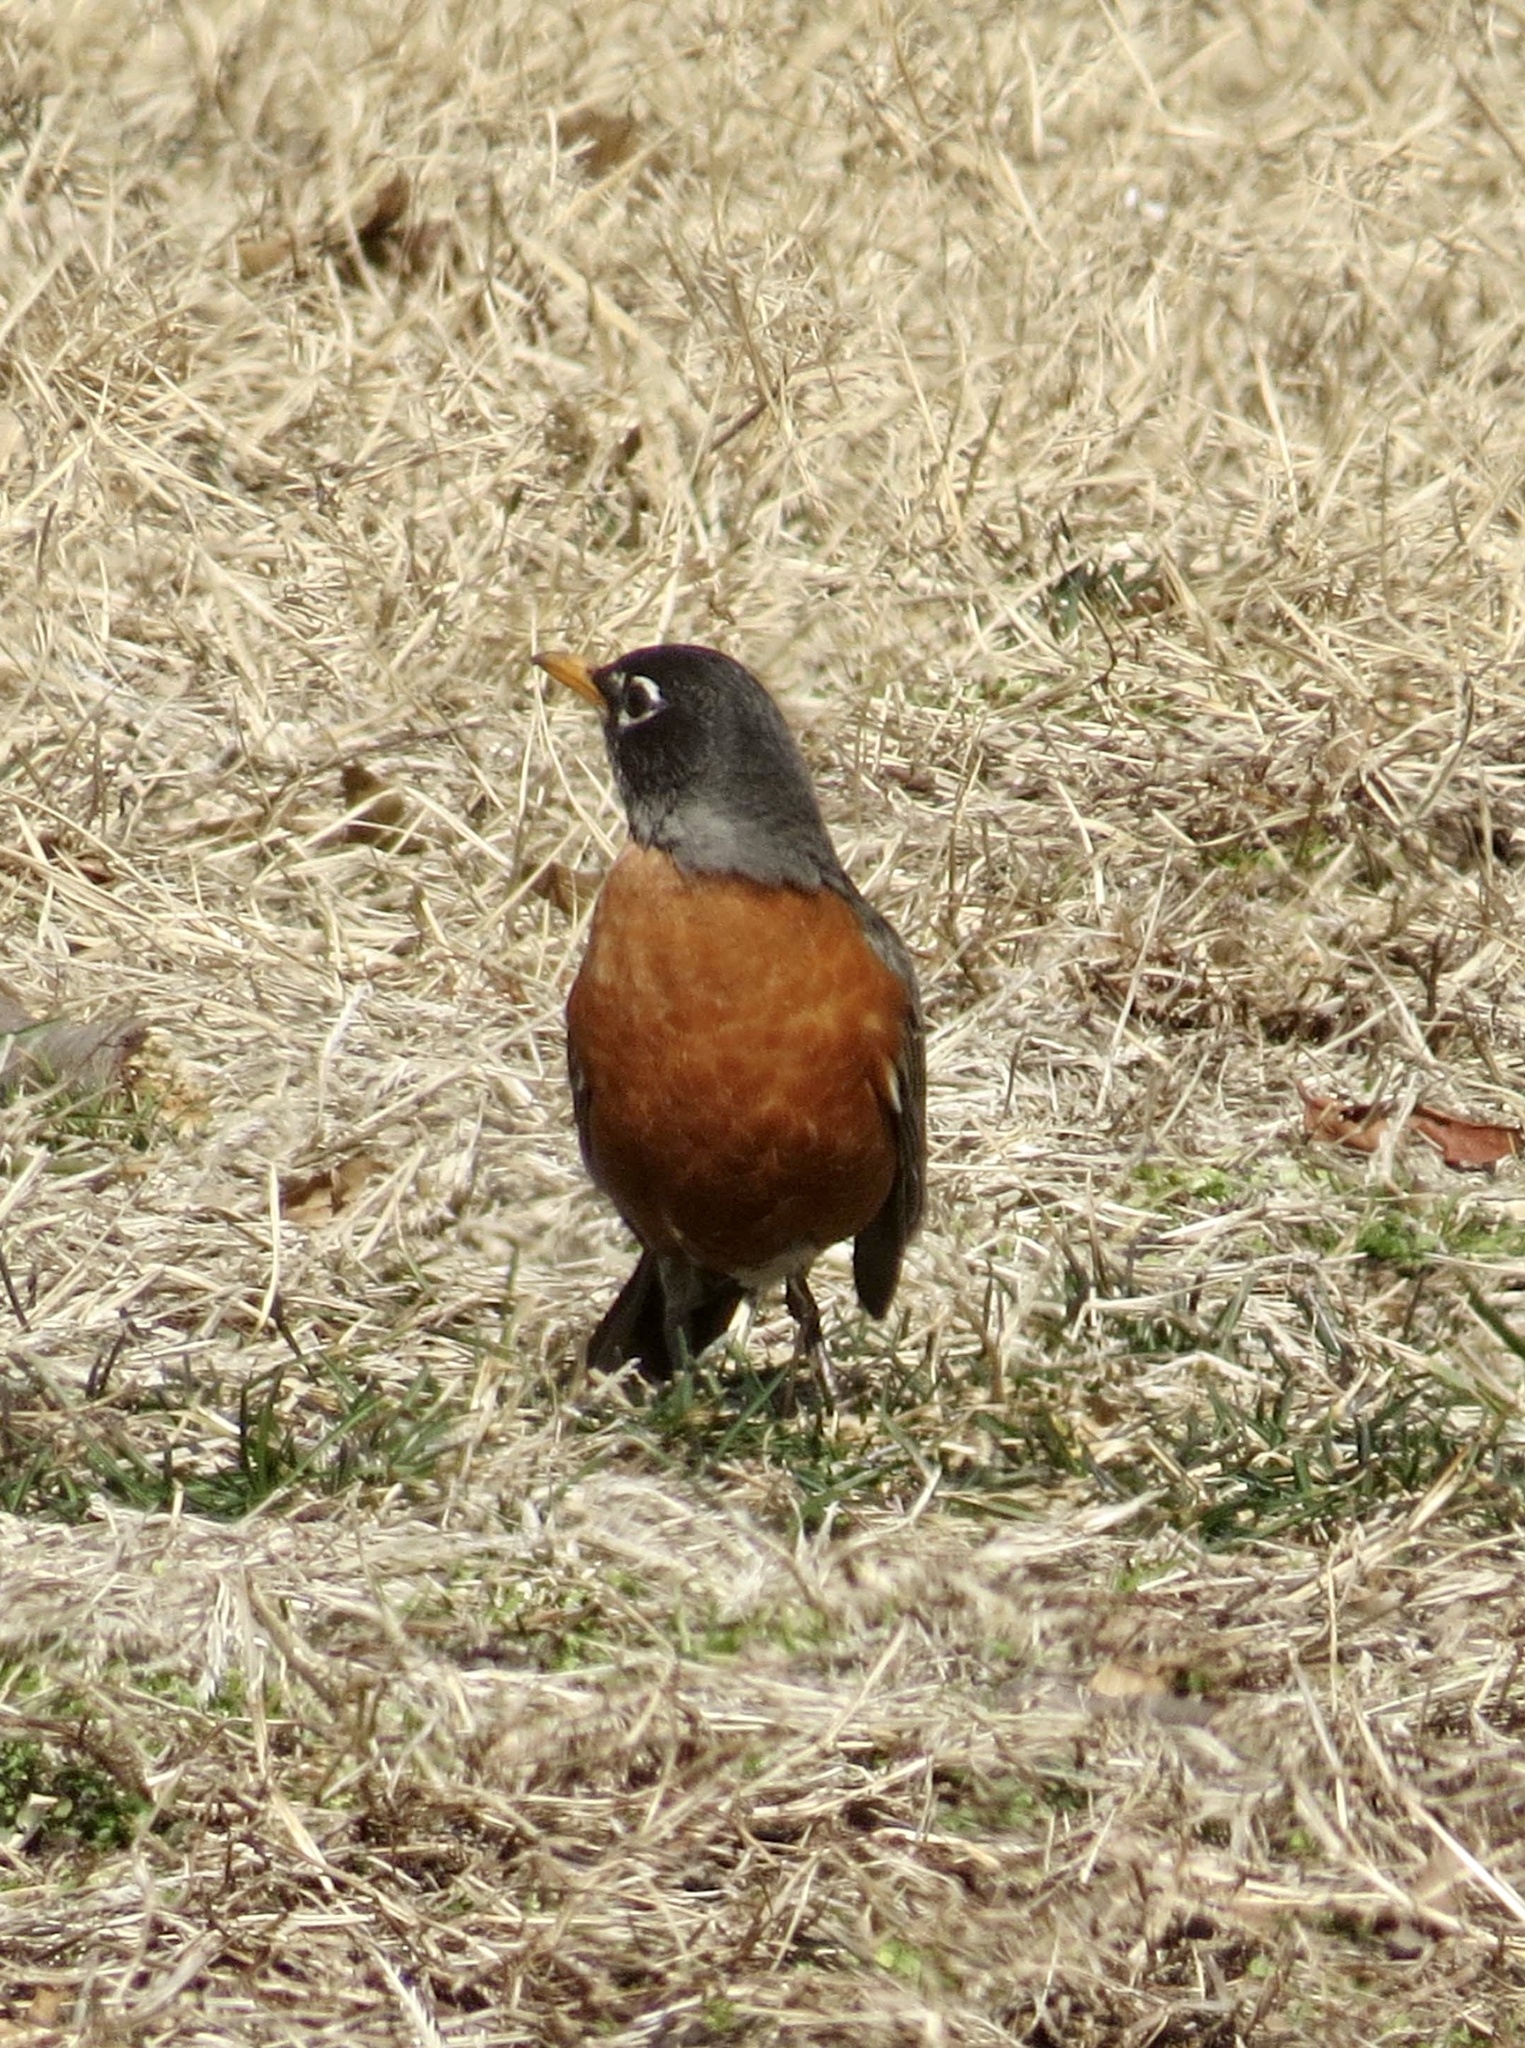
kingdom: Animalia
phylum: Chordata
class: Aves
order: Passeriformes
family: Turdidae
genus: Turdus
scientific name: Turdus migratorius
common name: American robin
